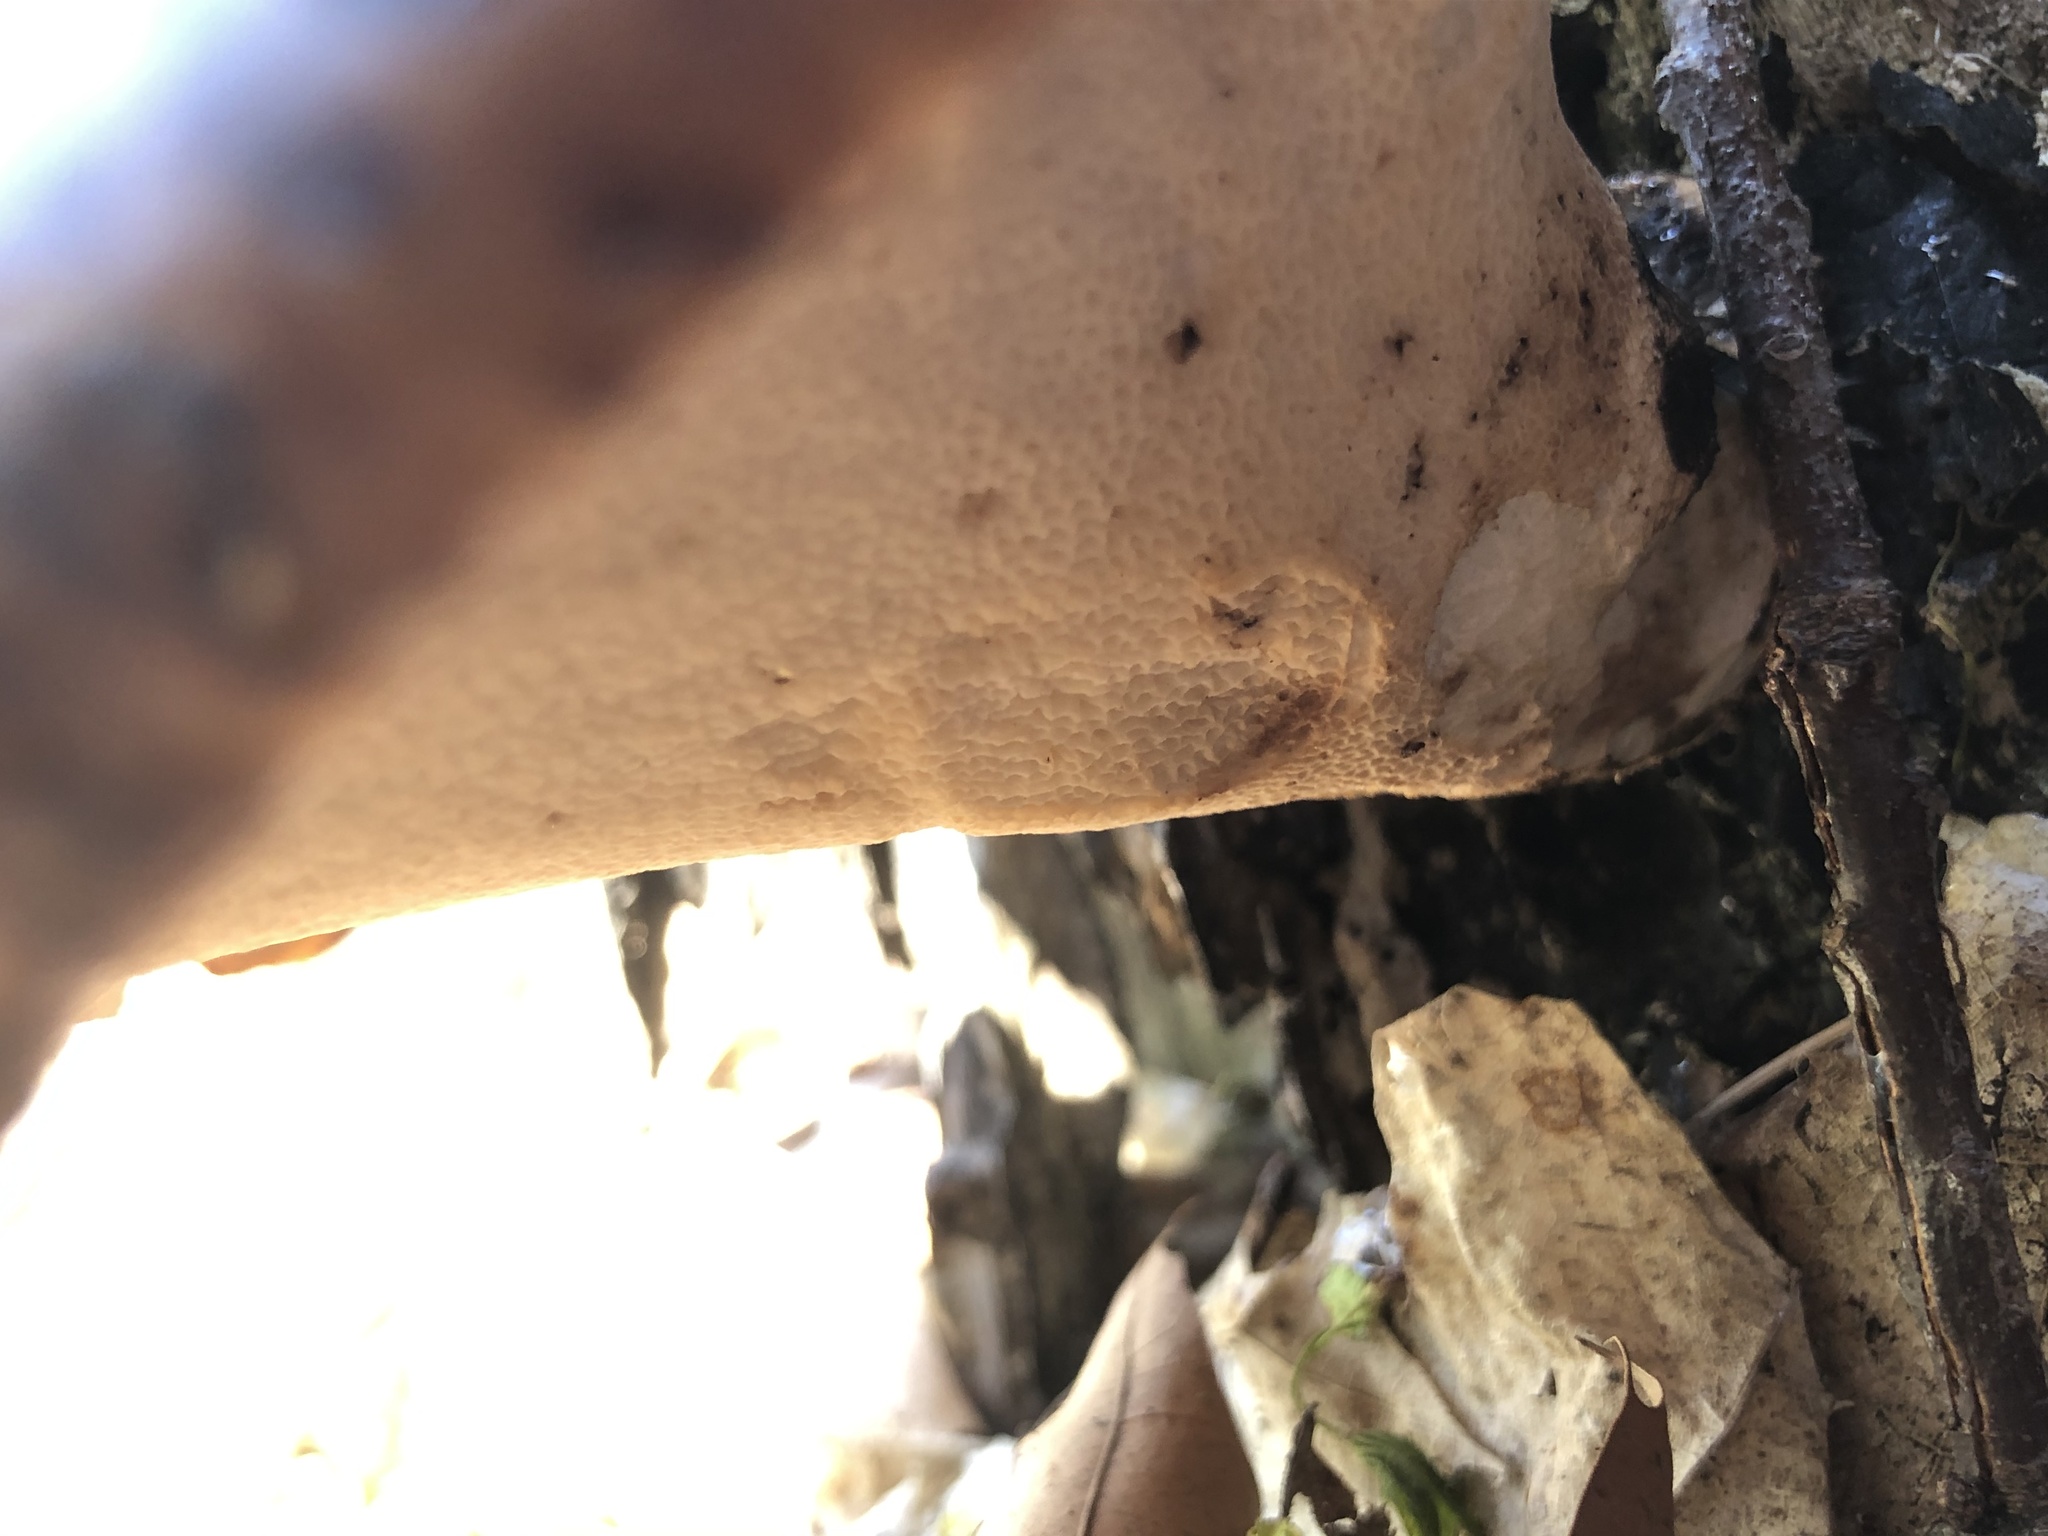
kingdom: Fungi
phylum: Basidiomycota
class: Agaricomycetes
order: Polyporales
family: Polyporaceae
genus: Cerioporus
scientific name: Cerioporus squamosus
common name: Dryad's saddle
